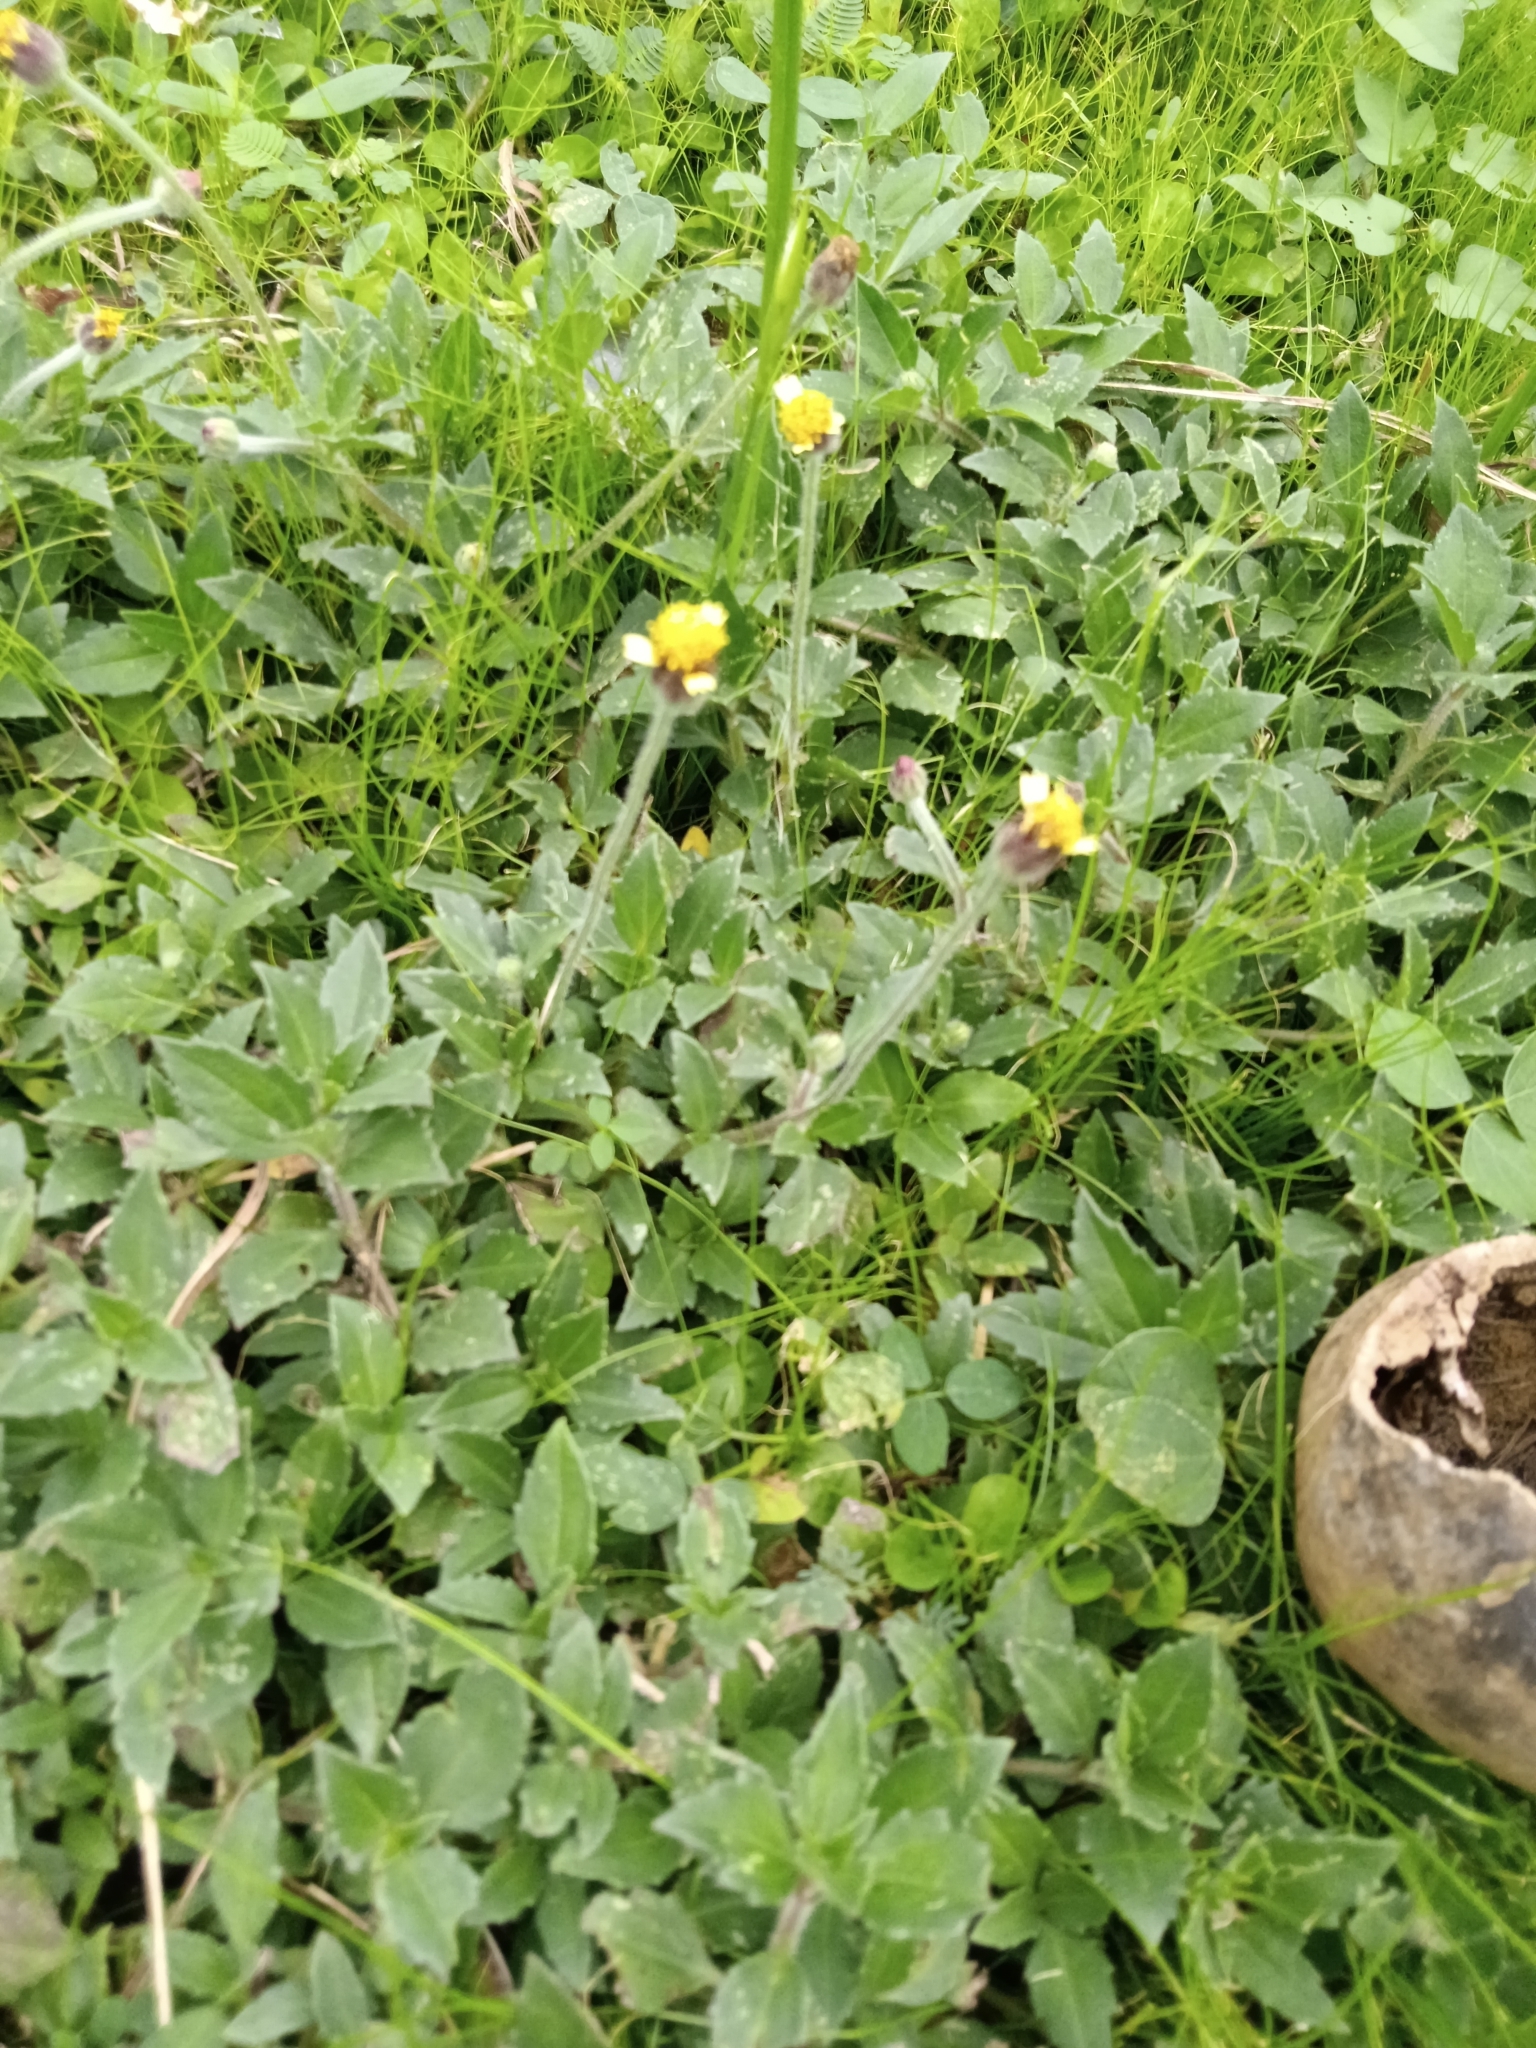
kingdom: Plantae
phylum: Tracheophyta
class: Magnoliopsida
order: Asterales
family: Asteraceae
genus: Tridax
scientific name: Tridax procumbens
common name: Coatbuttons
